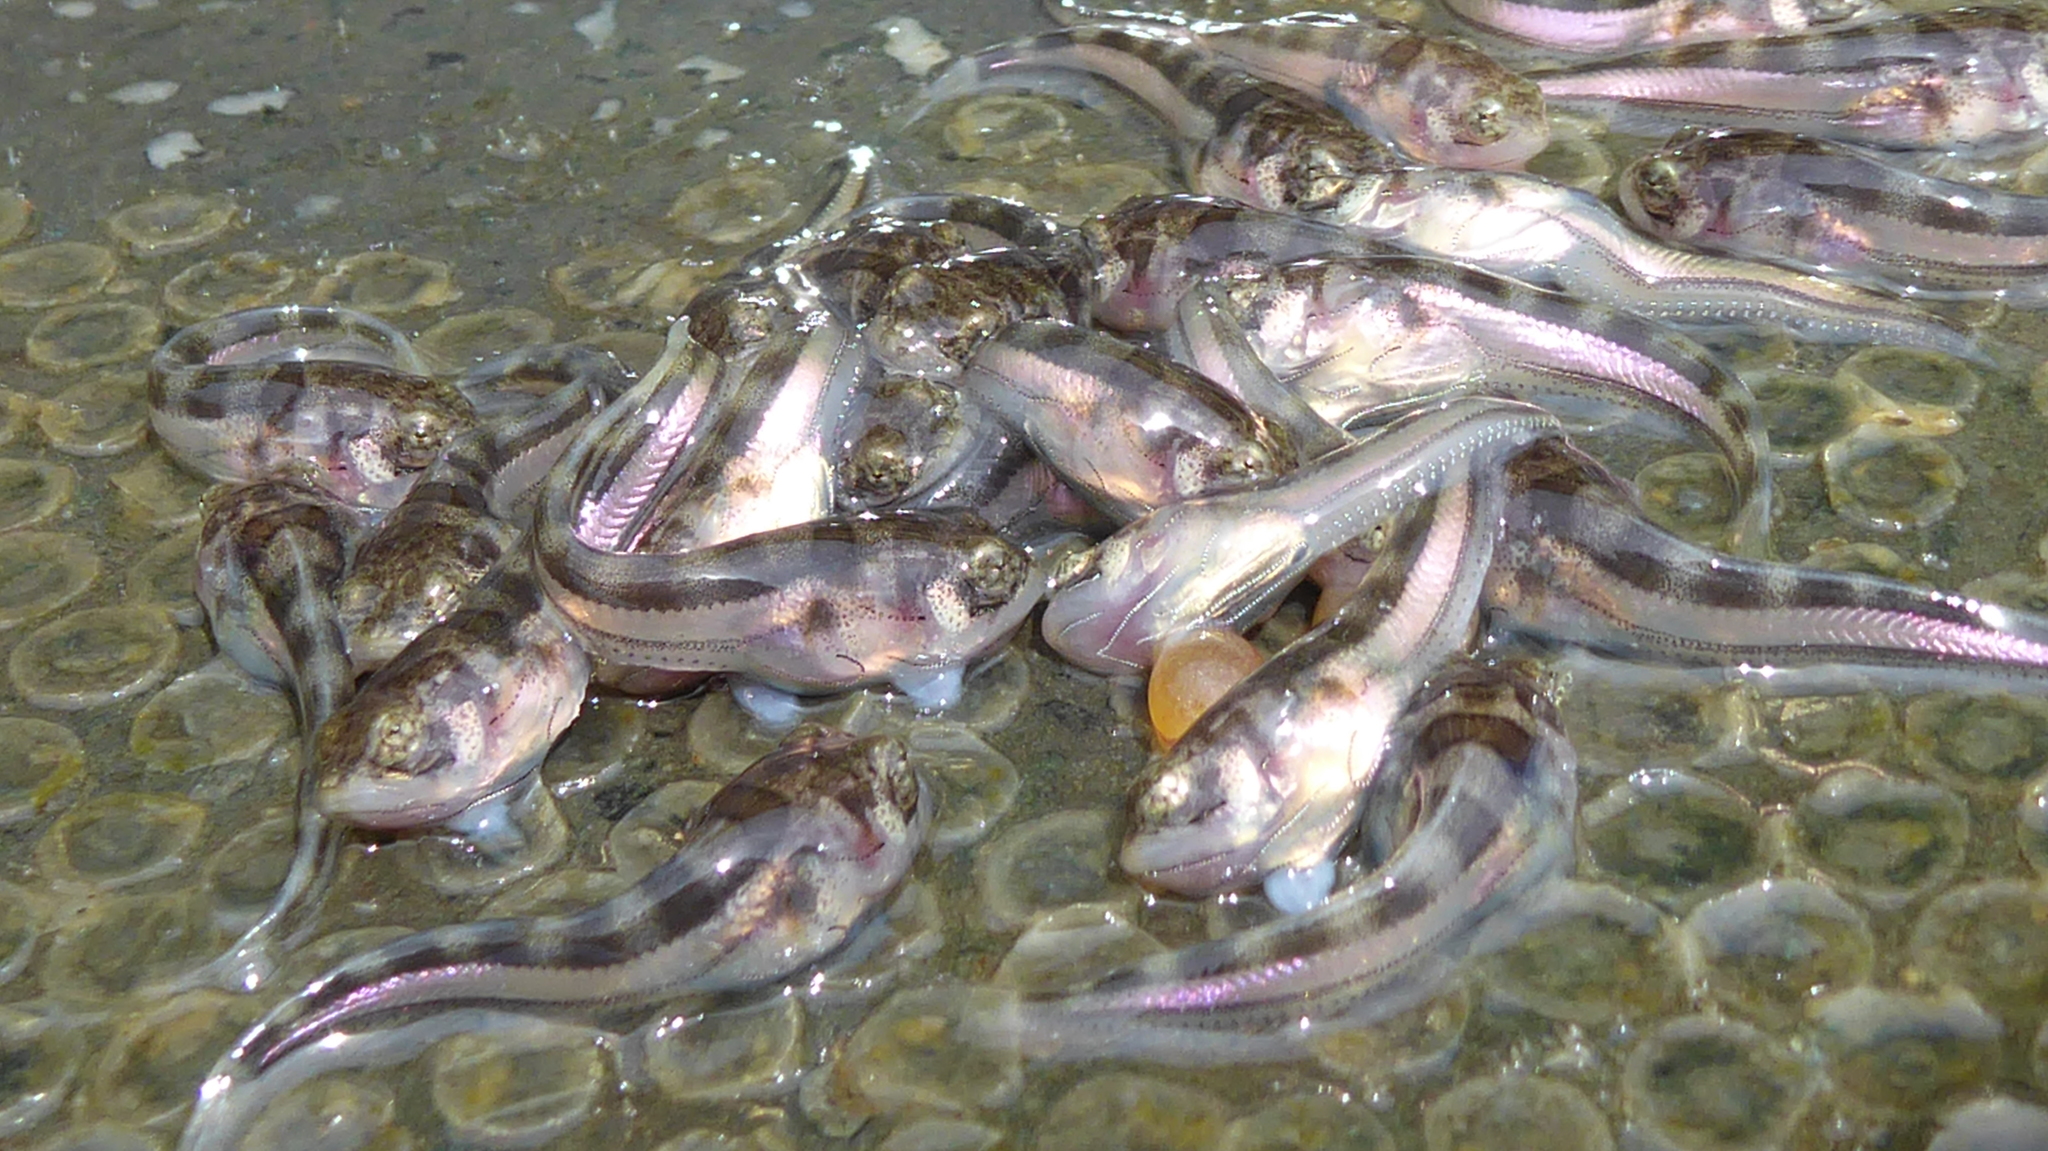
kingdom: Animalia
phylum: Chordata
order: Batrachoidiformes
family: Batrachoididae
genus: Porichthys
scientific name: Porichthys notatus
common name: Plainfin midshipman
